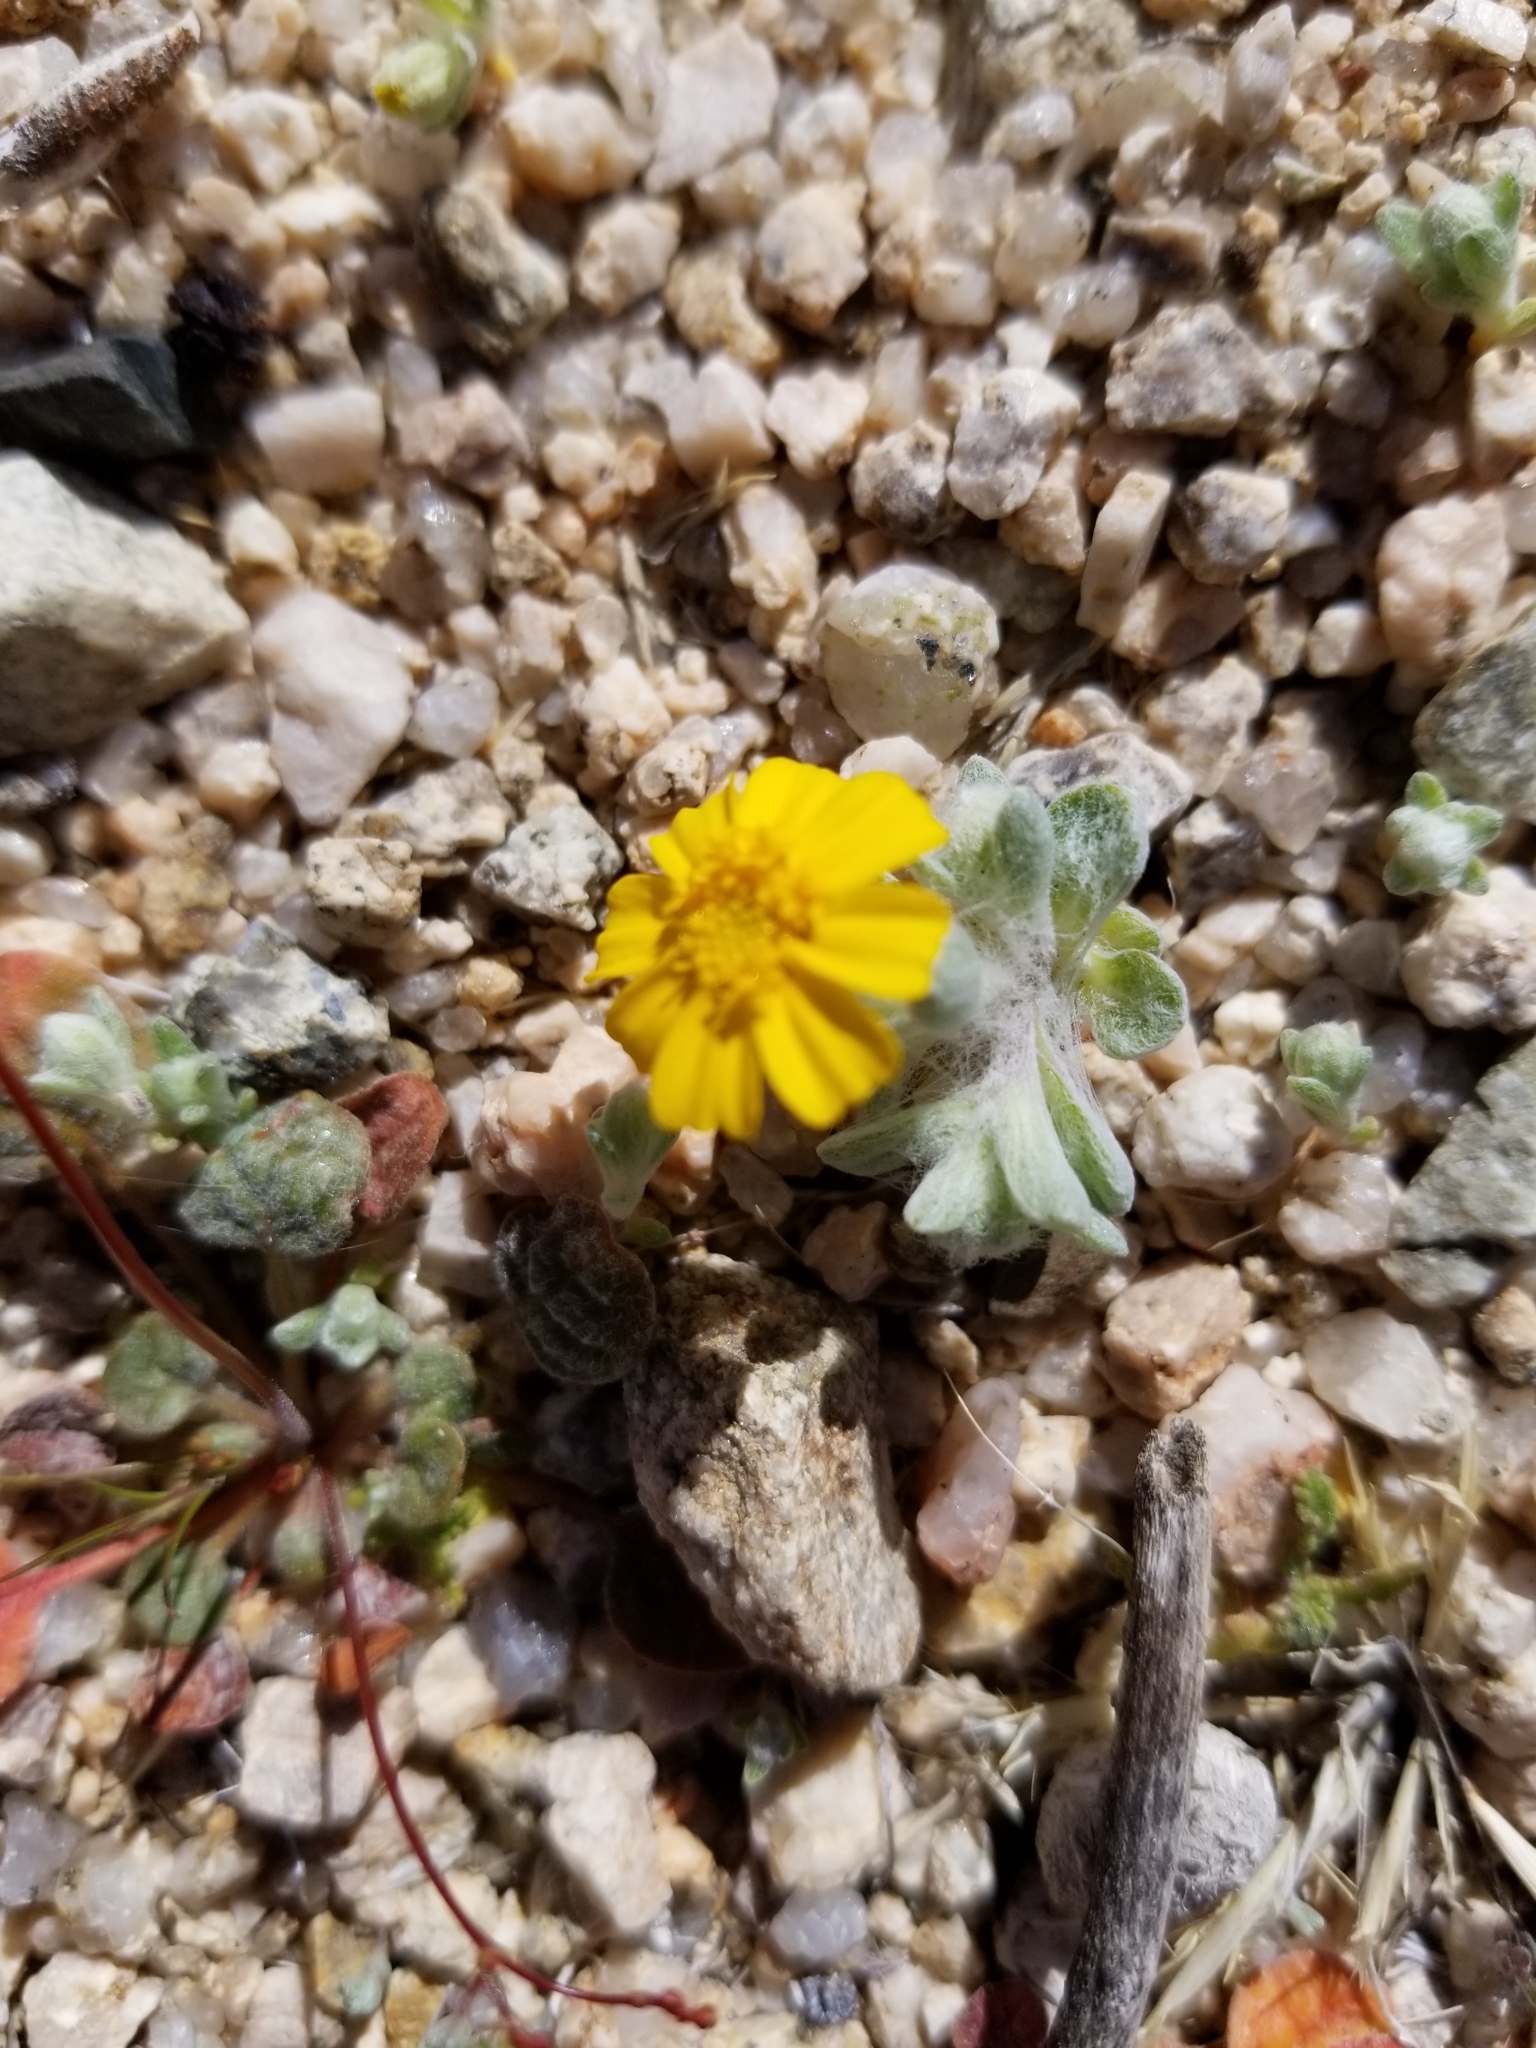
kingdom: Plantae
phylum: Tracheophyta
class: Magnoliopsida
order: Asterales
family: Asteraceae
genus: Eriophyllum
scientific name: Eriophyllum wallacei
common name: Wallace's woolly daisy
